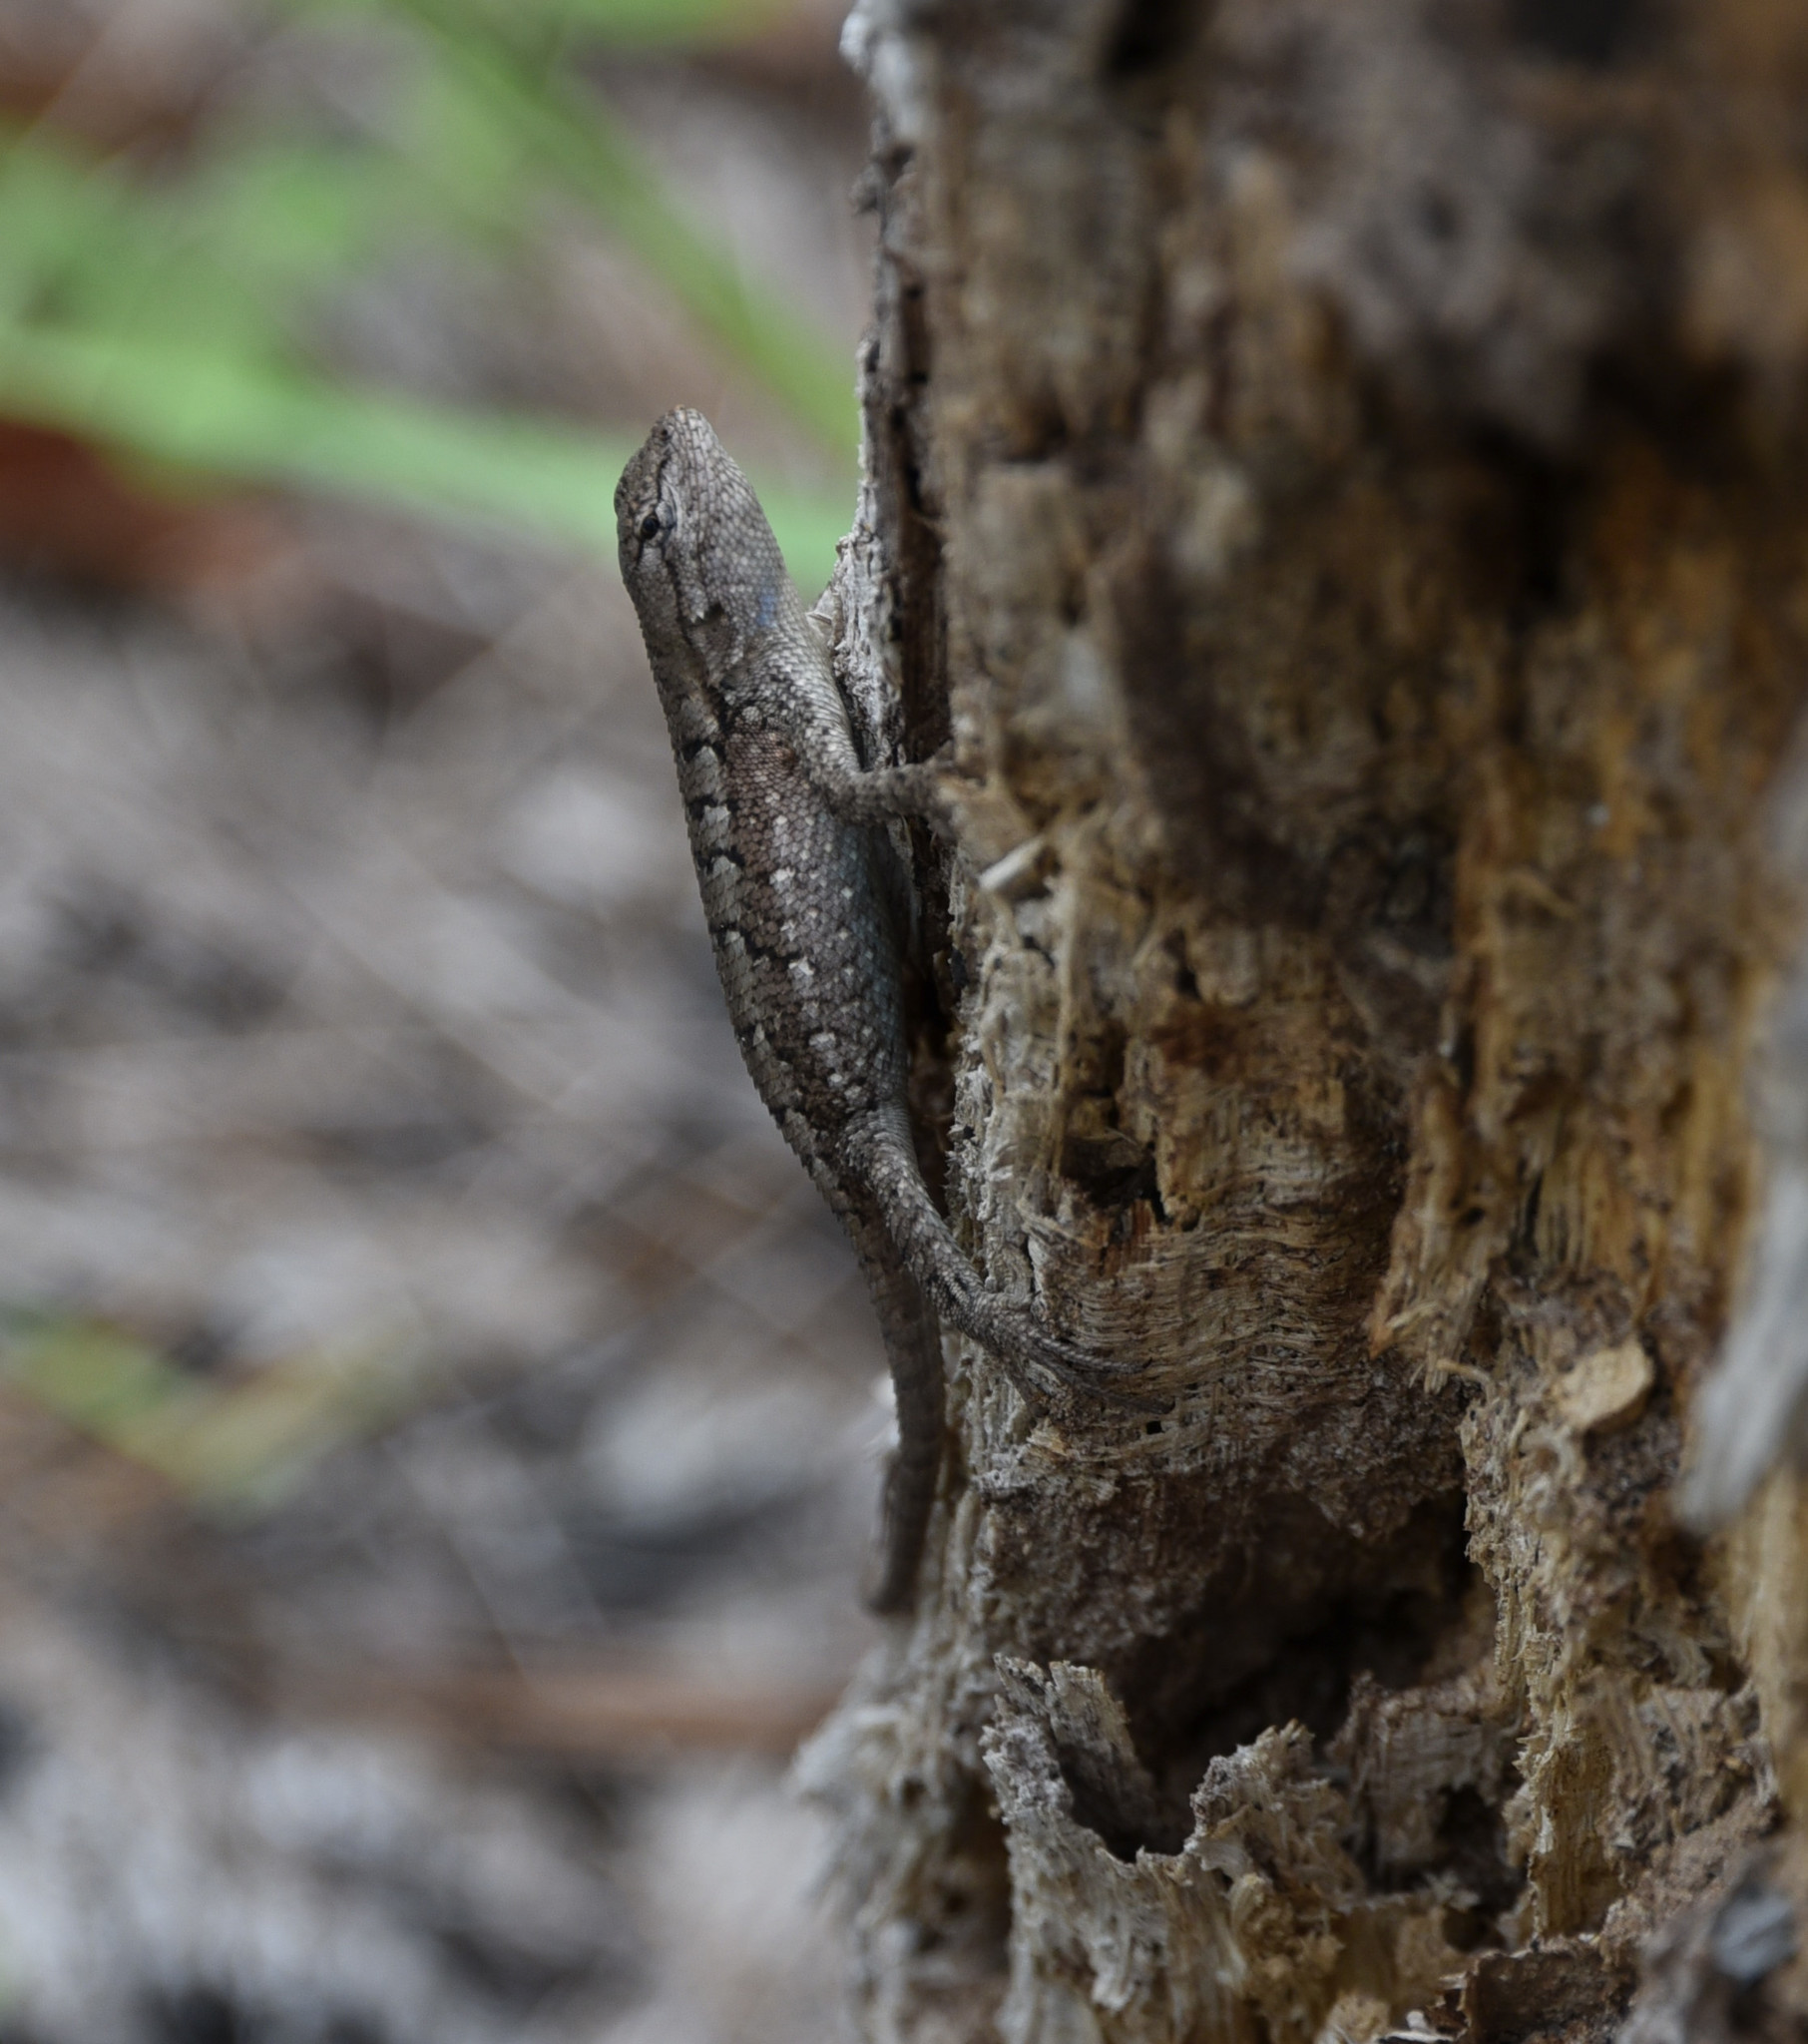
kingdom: Animalia
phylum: Chordata
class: Squamata
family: Phrynosomatidae
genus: Sceloporus
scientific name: Sceloporus consobrinus
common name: Southern prairie lizard
